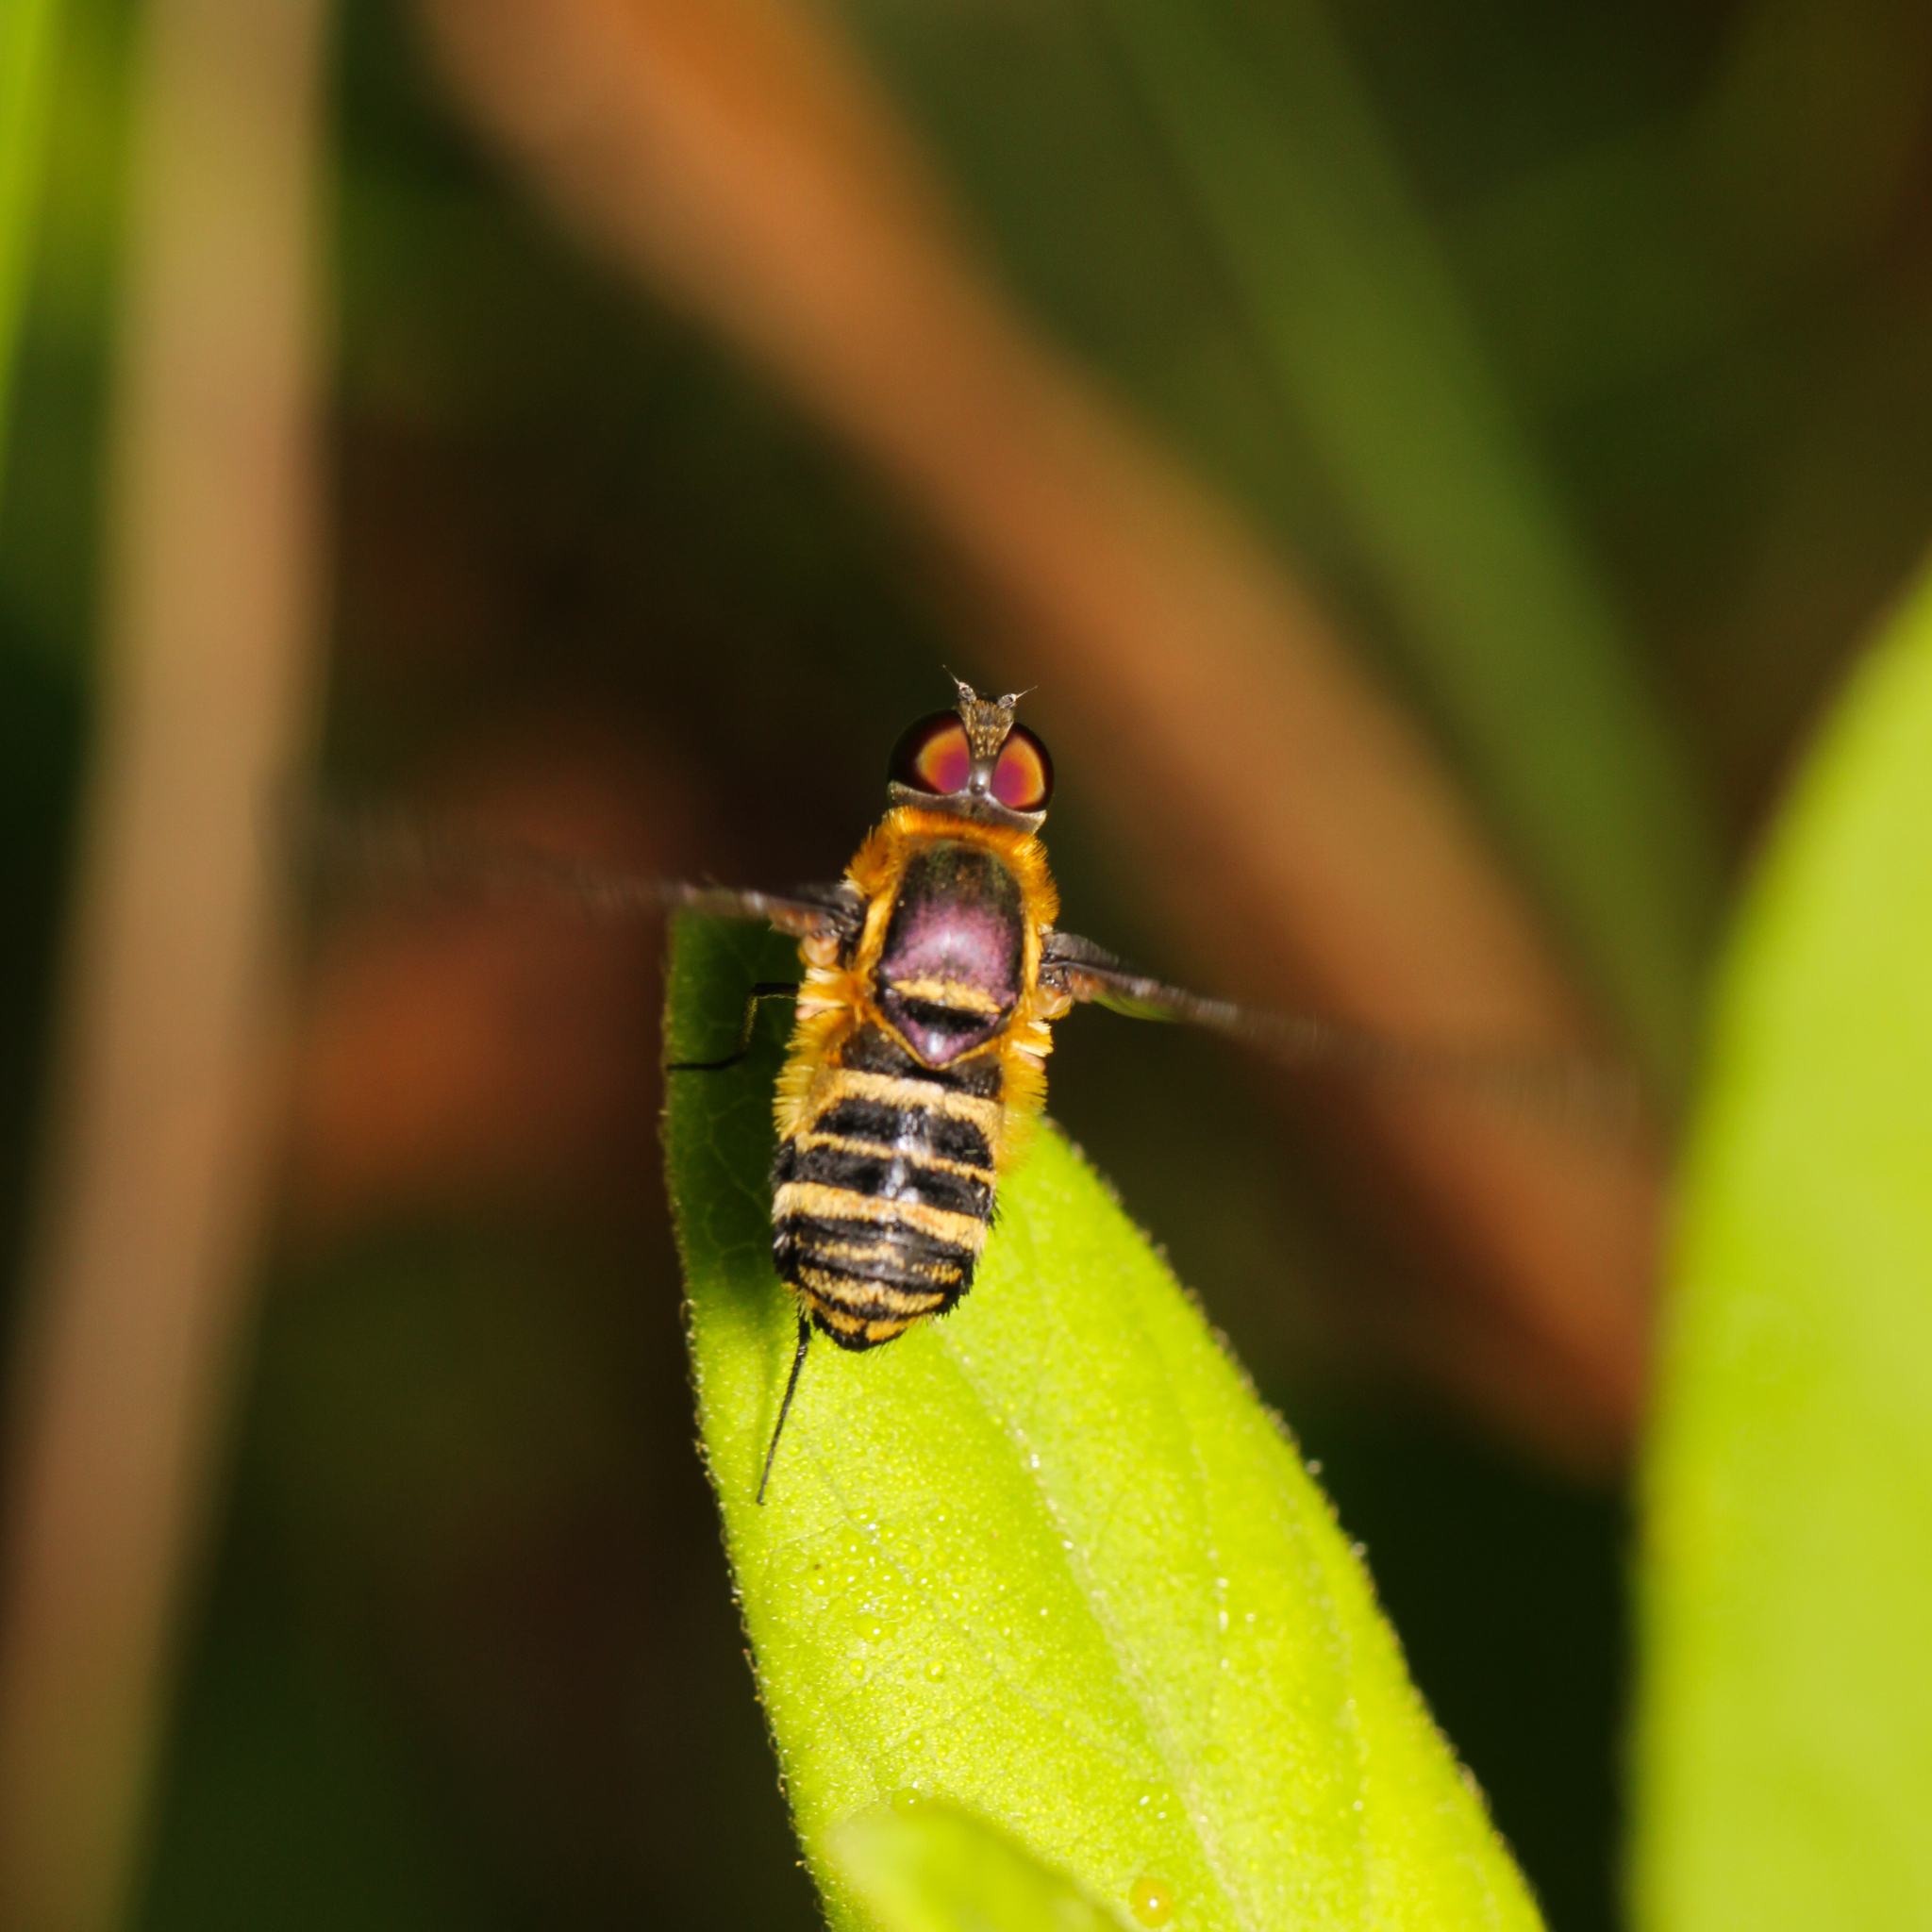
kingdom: Animalia
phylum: Arthropoda
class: Insecta
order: Diptera
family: Bombyliidae
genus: Villa
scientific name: Villa lateralis
